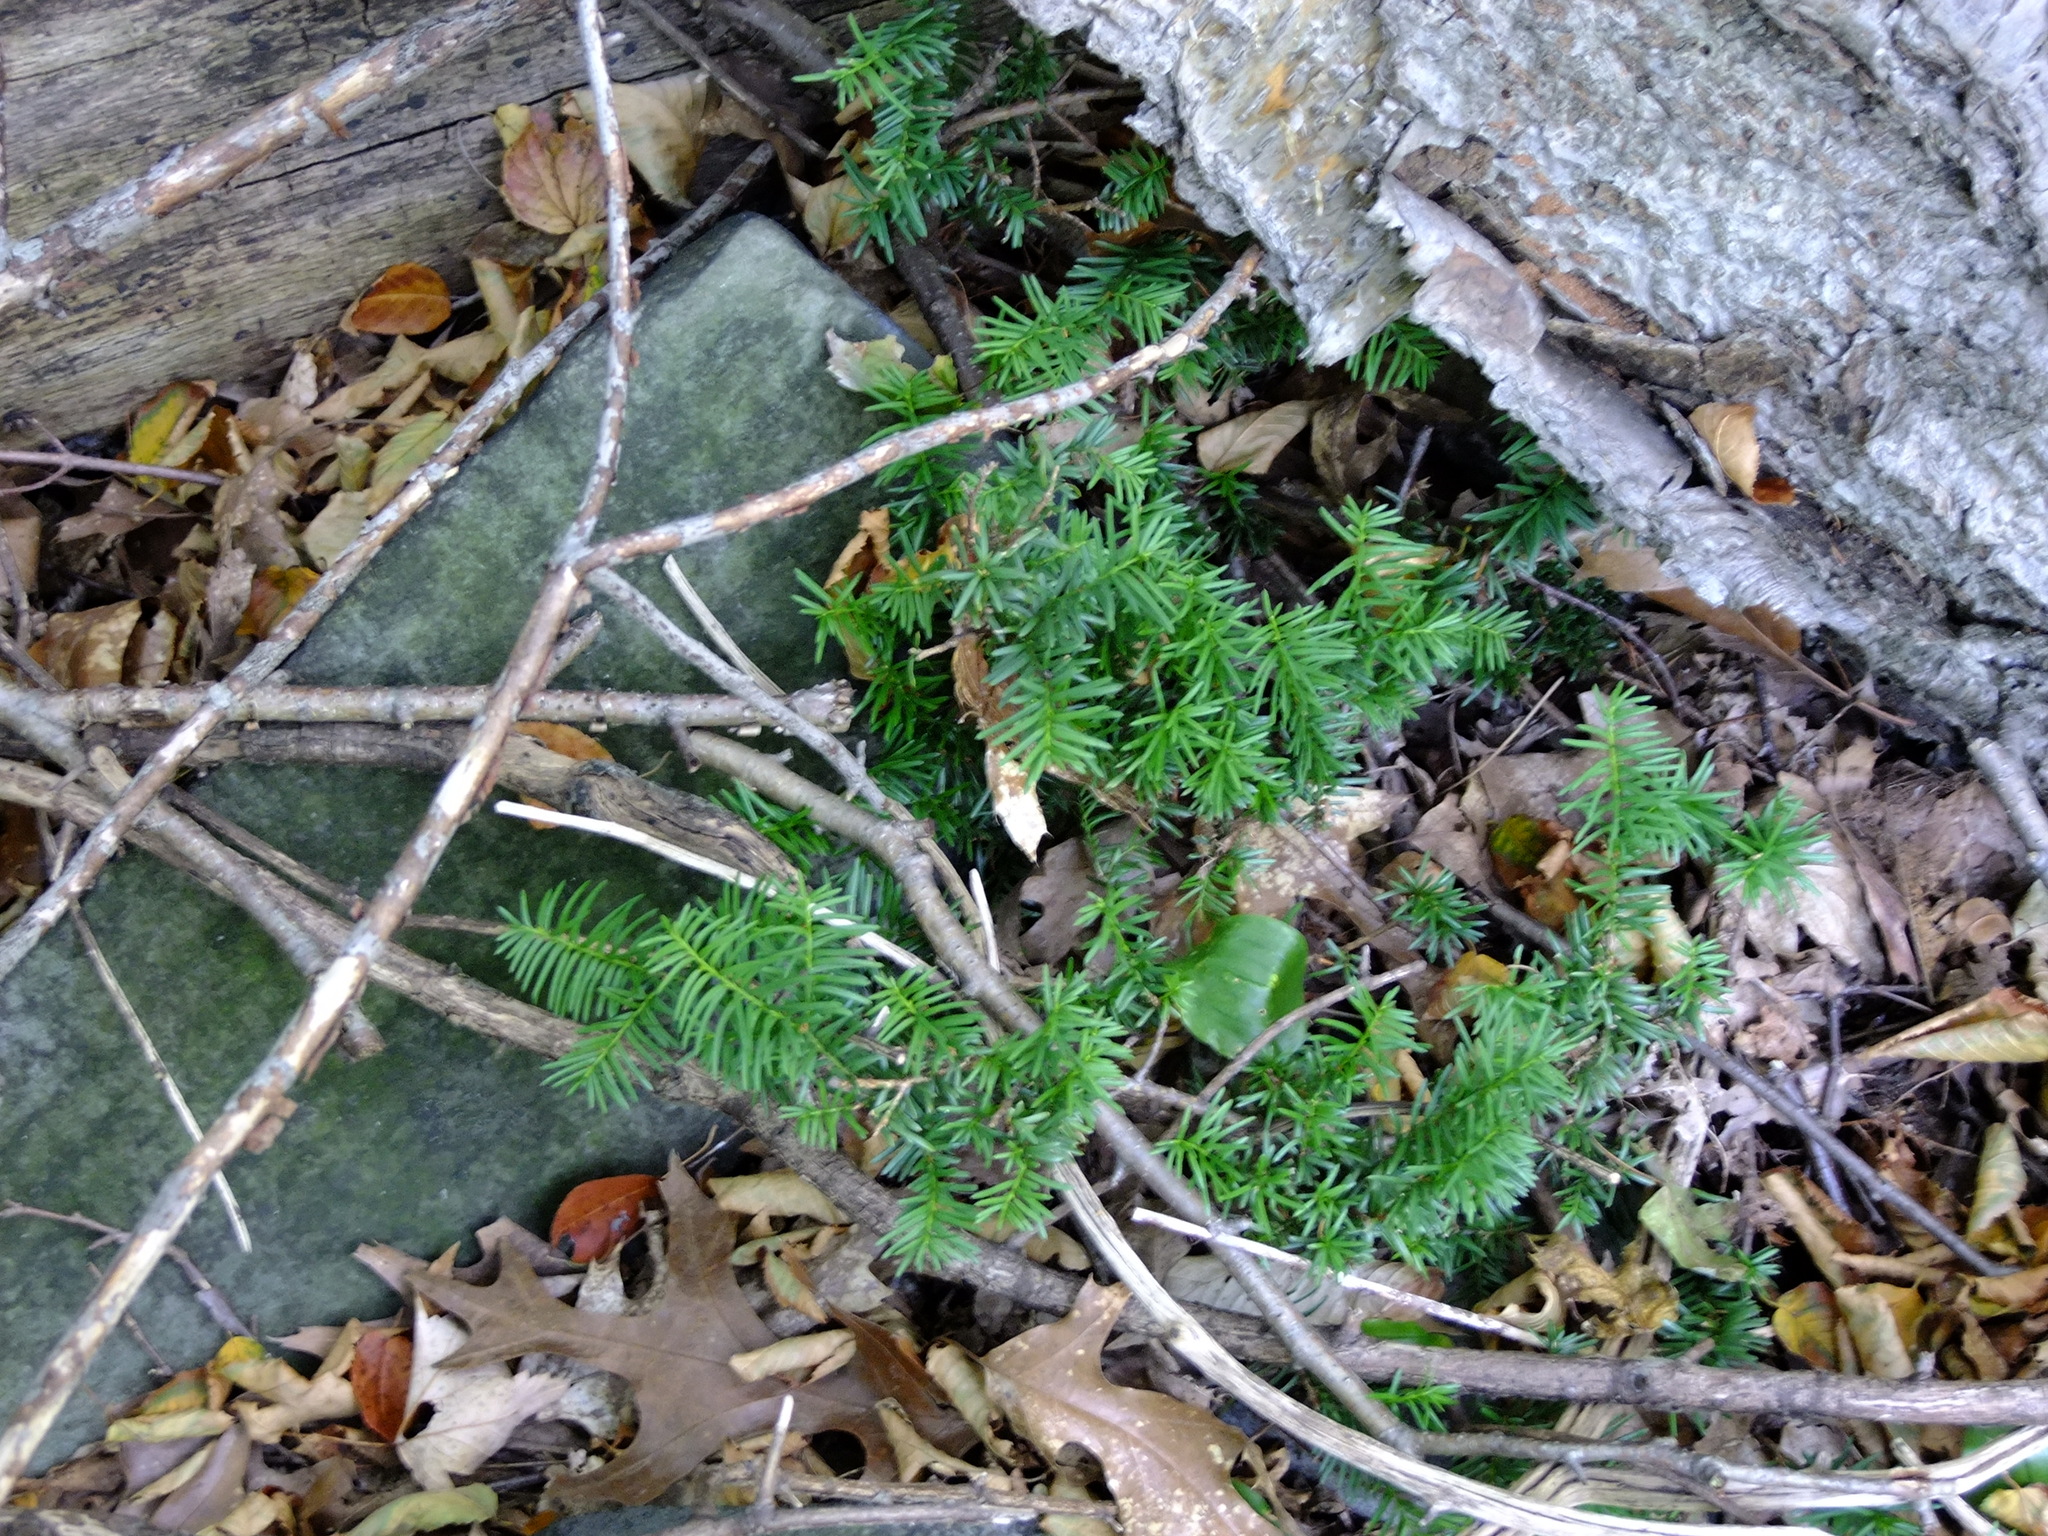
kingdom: Plantae
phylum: Tracheophyta
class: Pinopsida
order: Pinales
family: Taxaceae
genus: Taxus
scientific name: Taxus canadensis
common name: American yew
